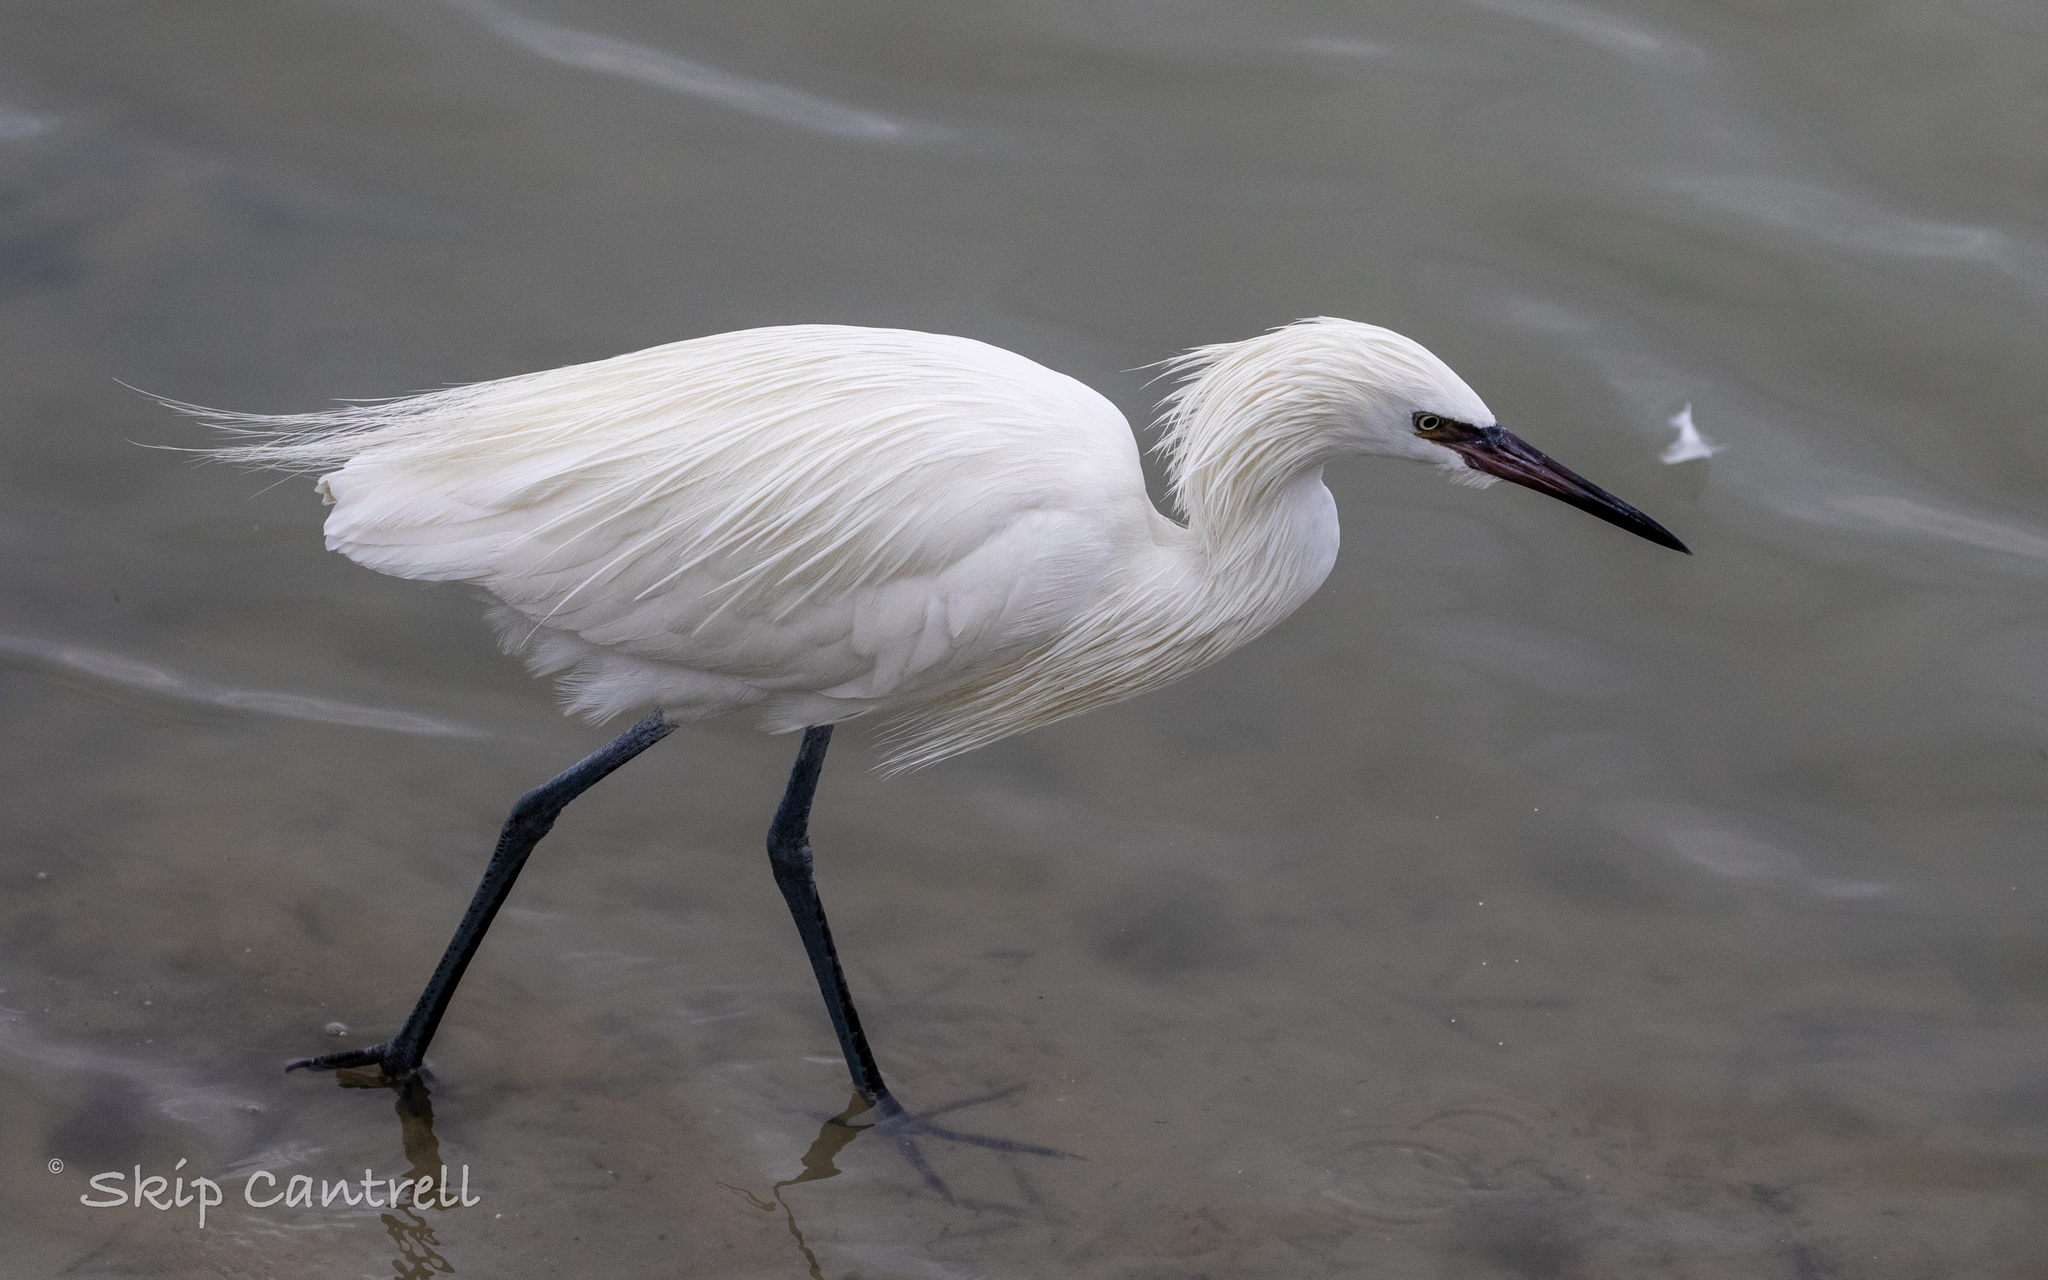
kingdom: Animalia
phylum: Chordata
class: Aves
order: Pelecaniformes
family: Ardeidae
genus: Egretta
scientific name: Egretta rufescens
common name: Reddish egret
